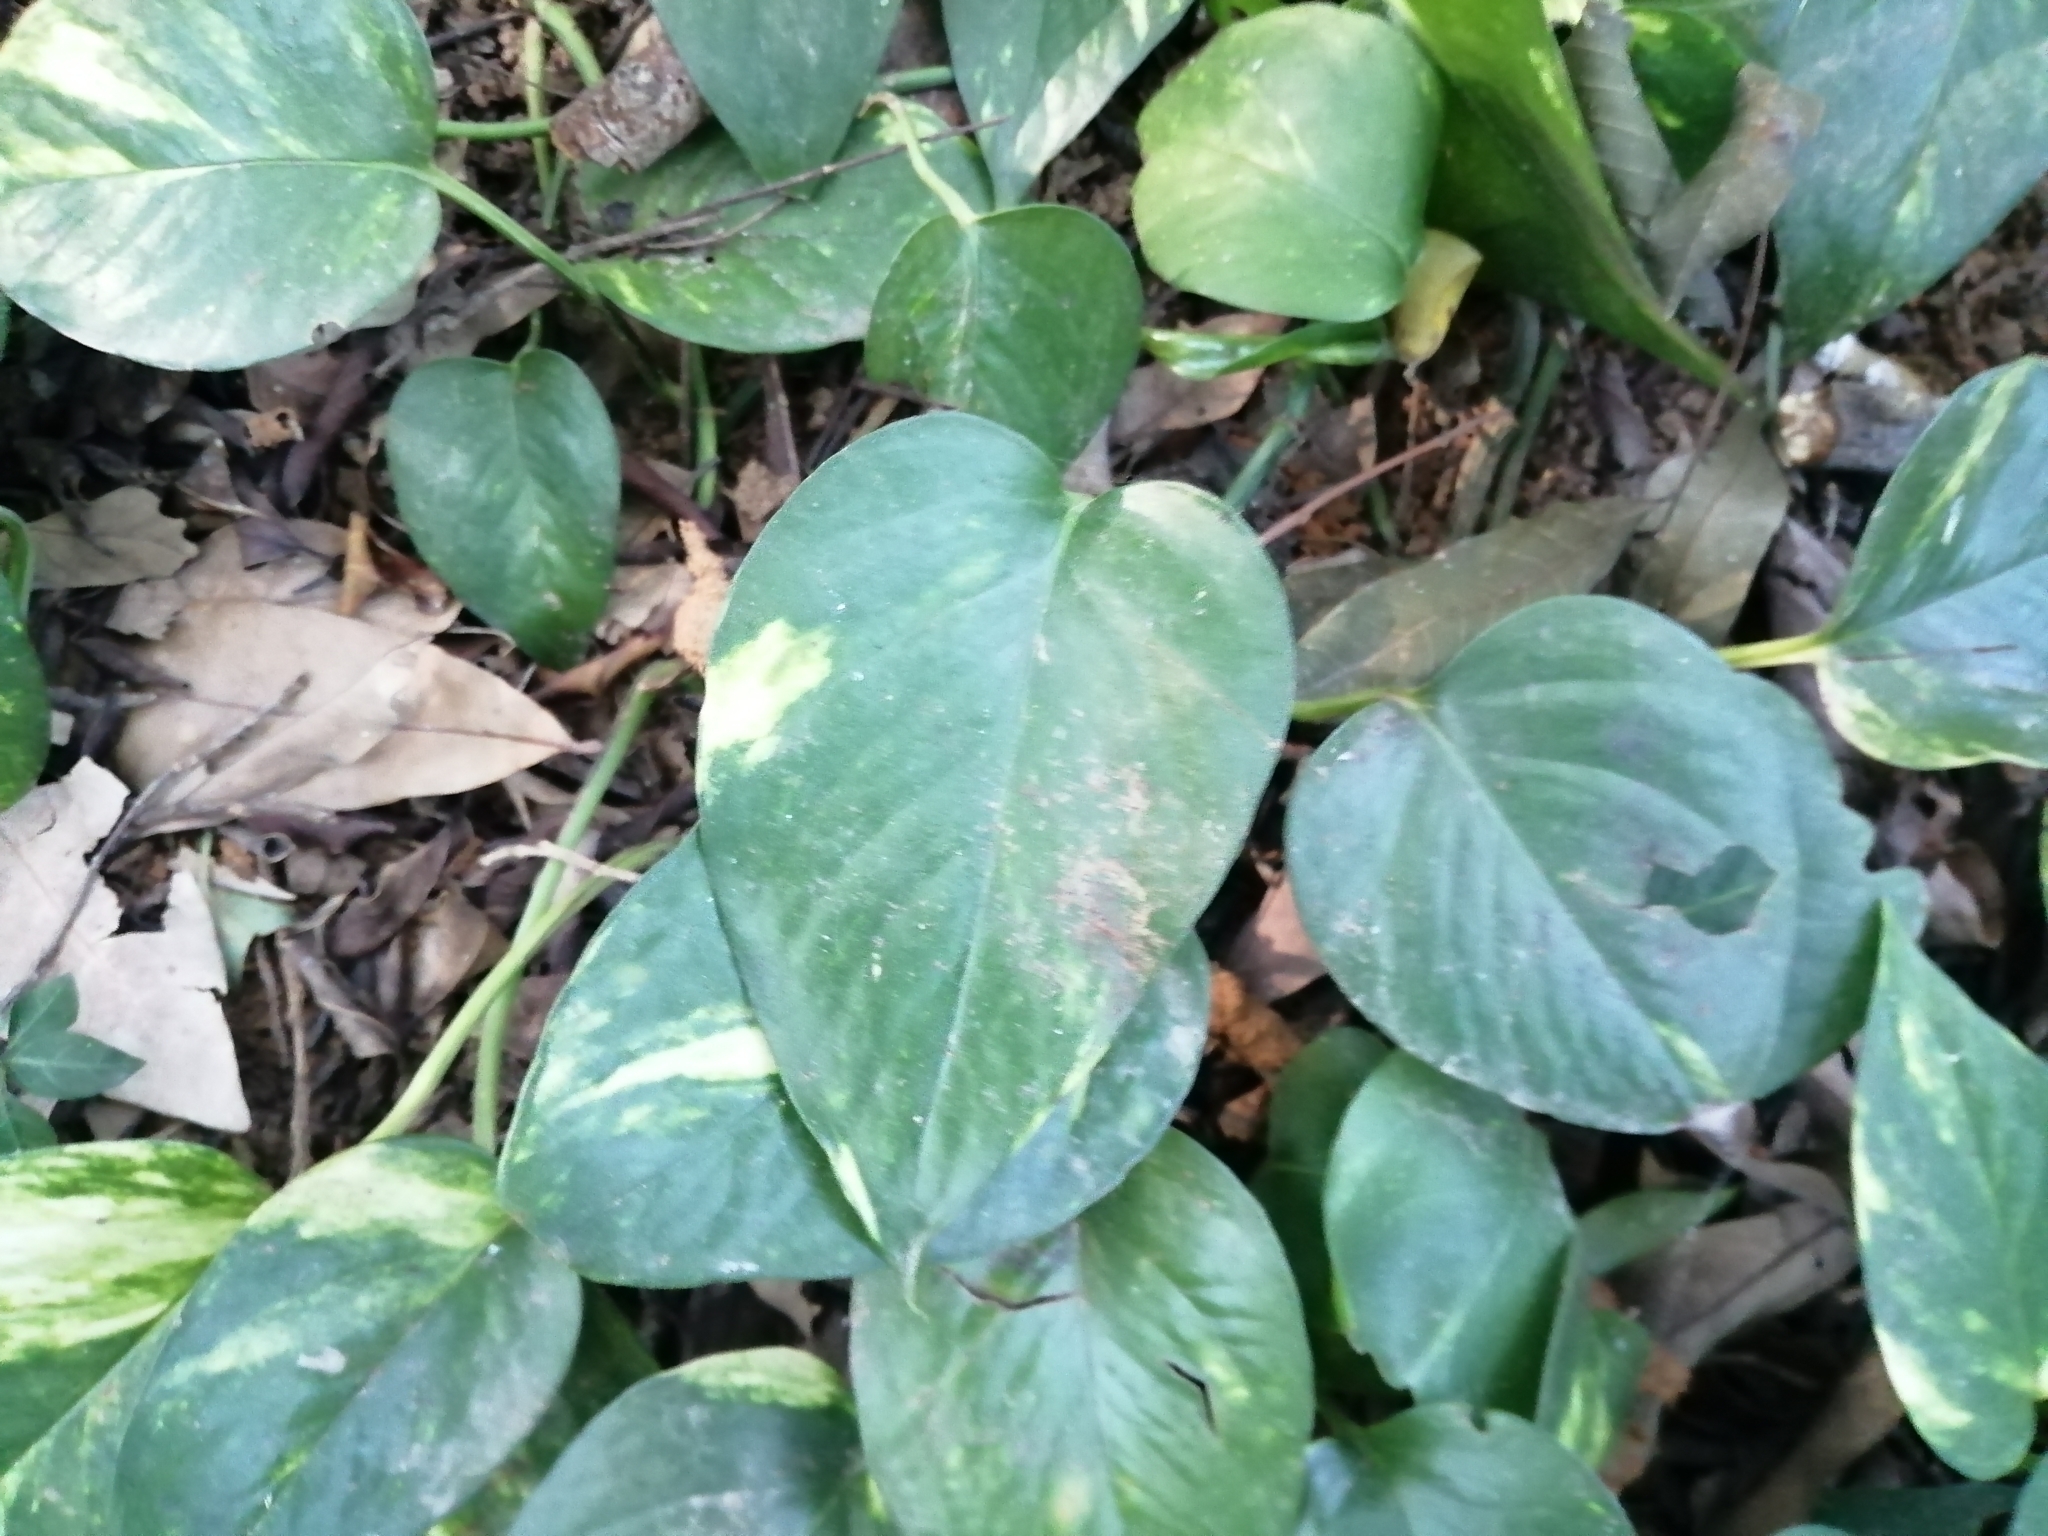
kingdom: Plantae
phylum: Tracheophyta
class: Liliopsida
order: Alismatales
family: Araceae
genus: Epipremnum
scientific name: Epipremnum aureum
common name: Golden hunter's-robe
